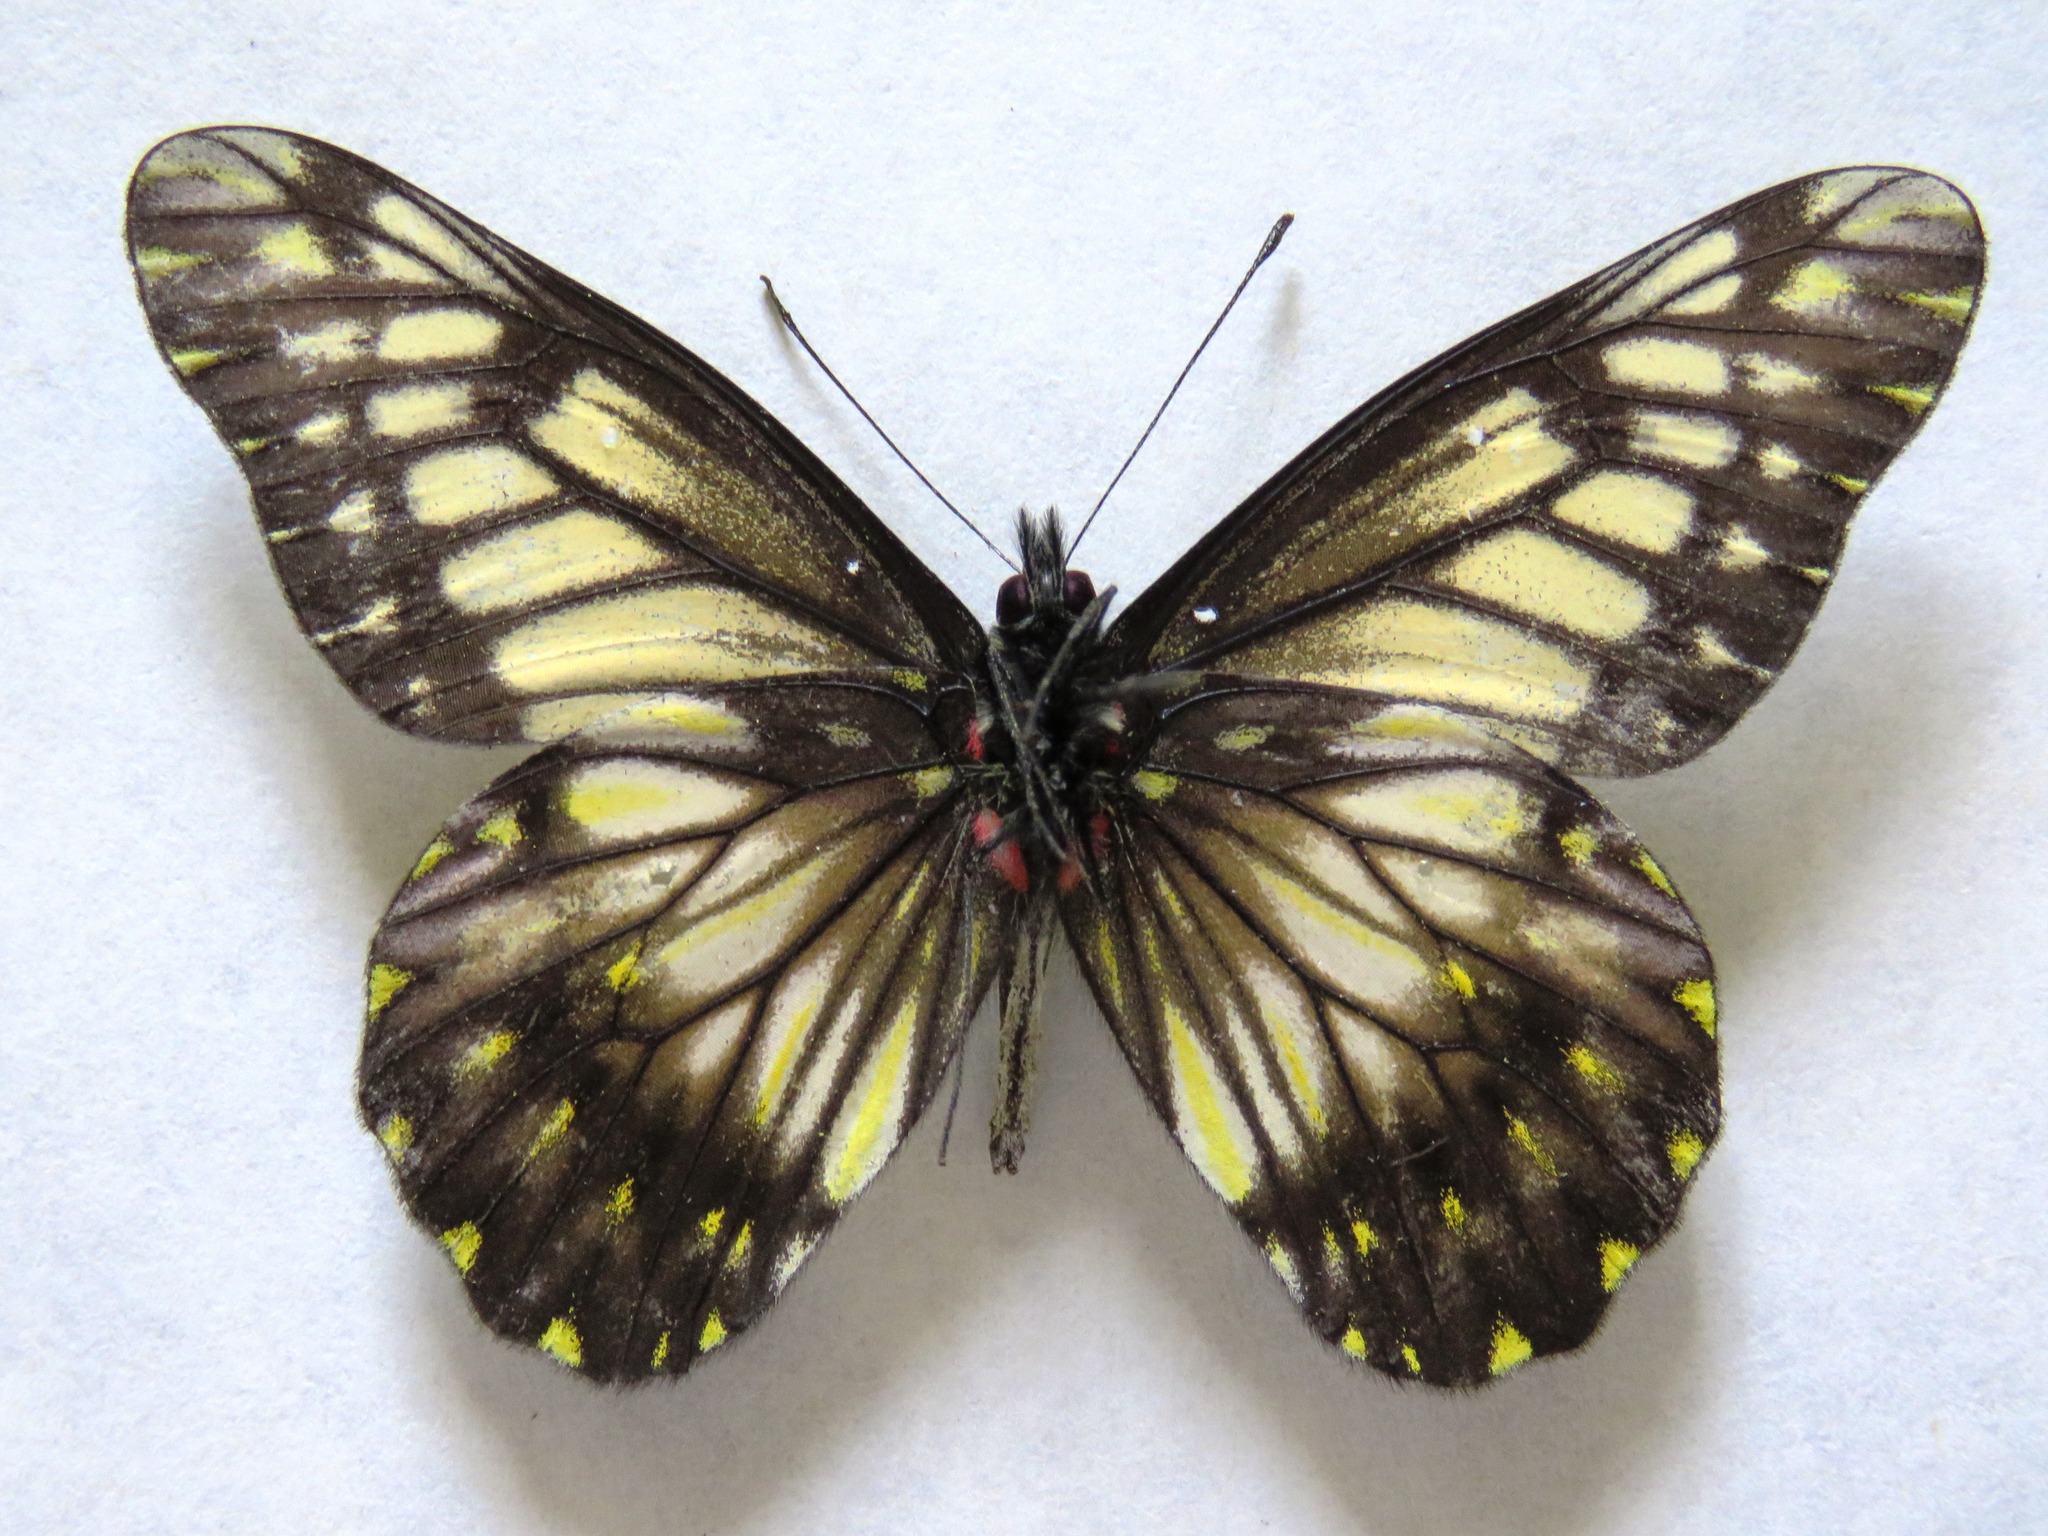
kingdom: Animalia
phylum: Arthropoda
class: Insecta
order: Lepidoptera
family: Pieridae
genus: Archonias
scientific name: Archonias nimbice
